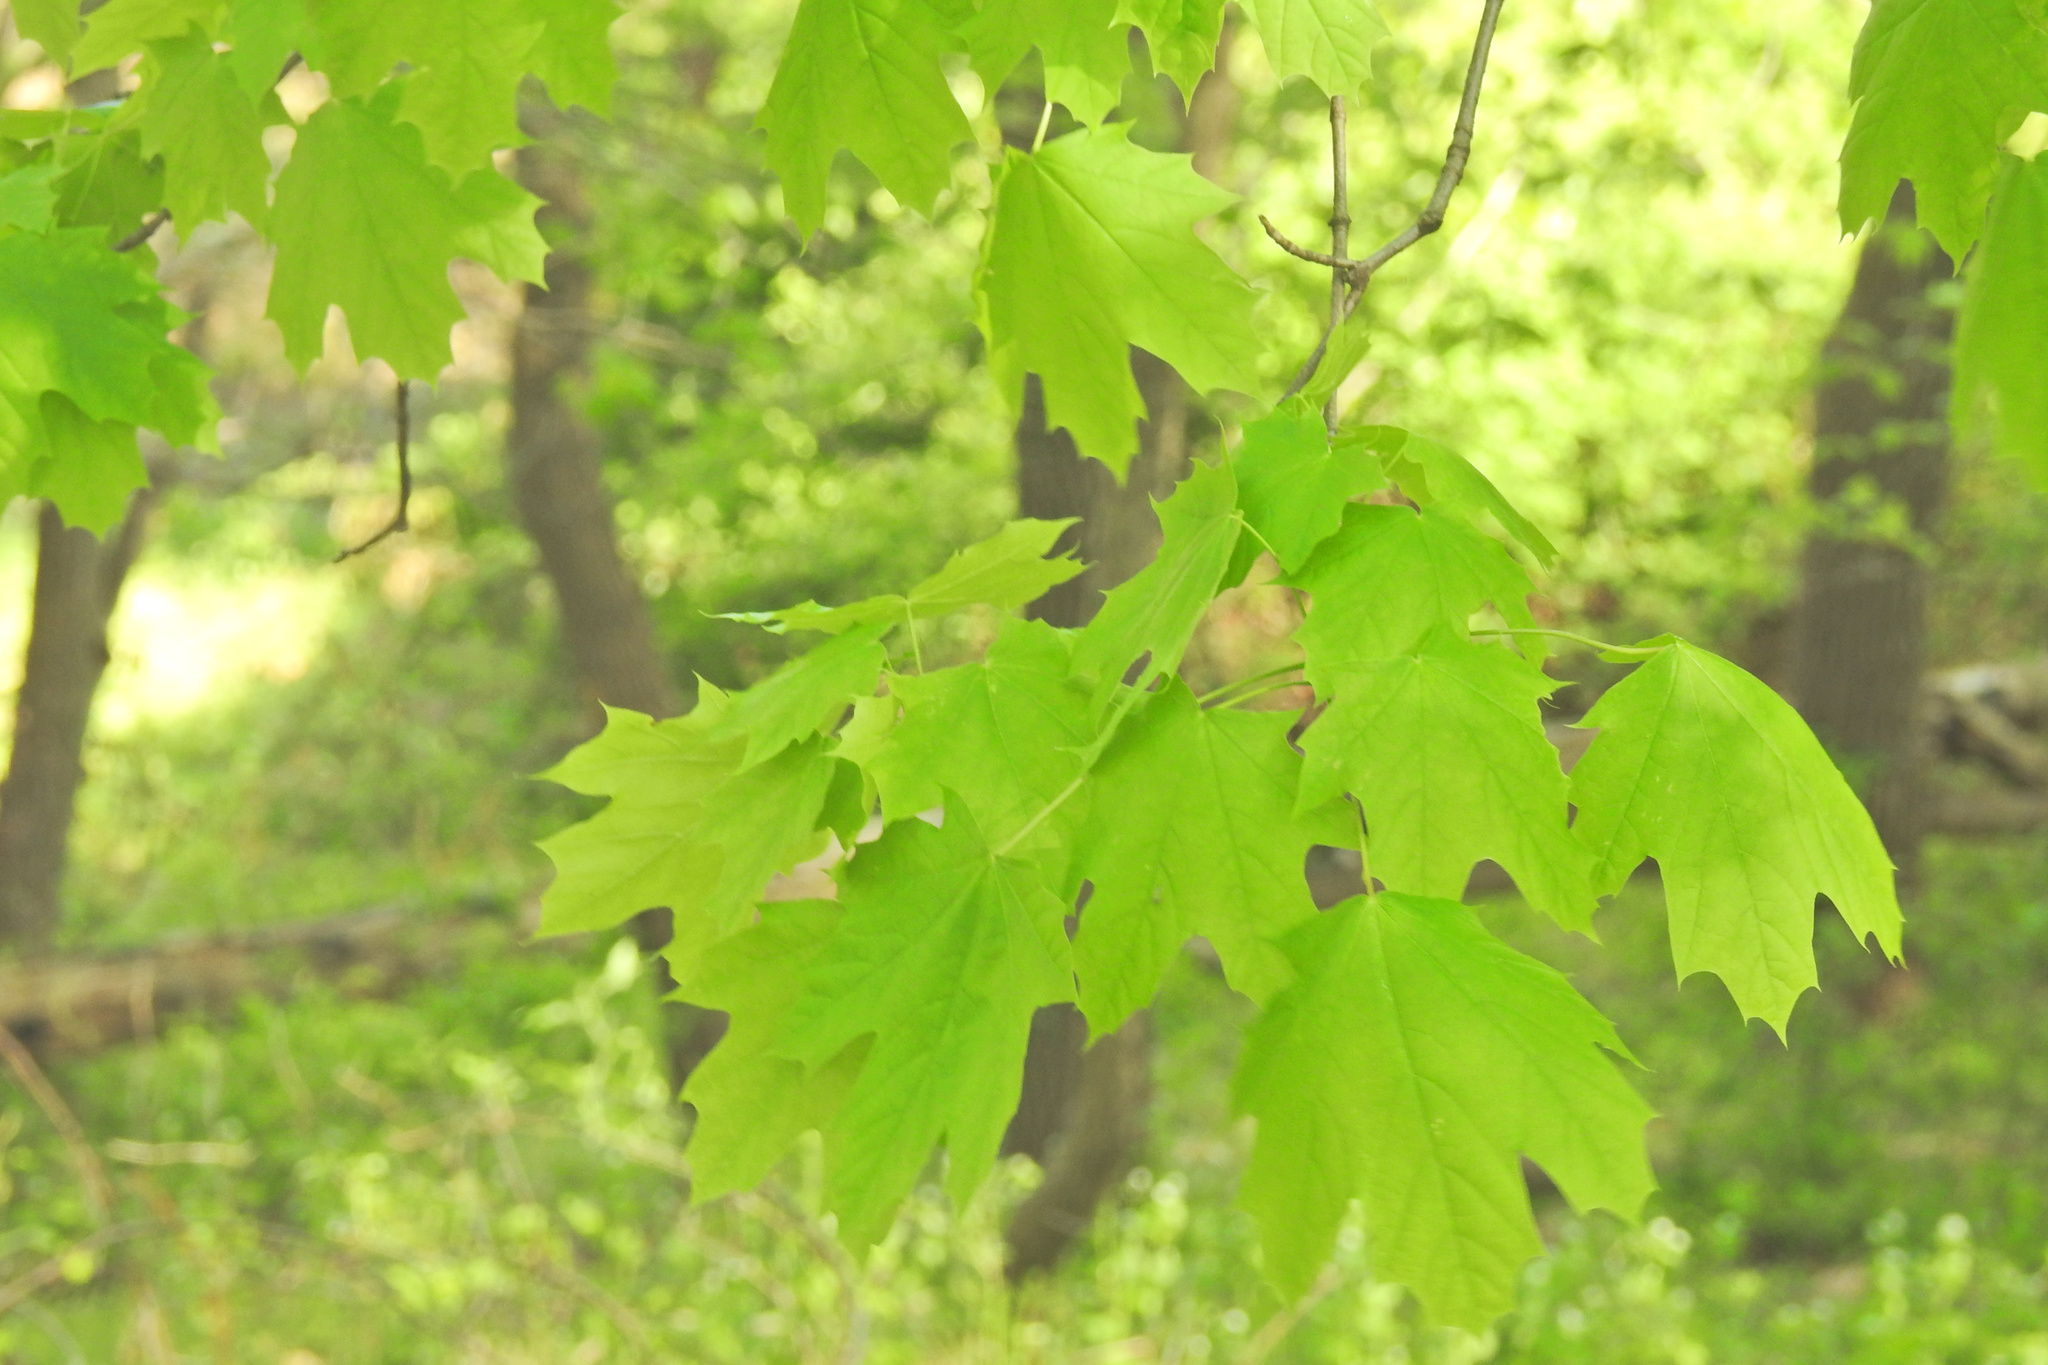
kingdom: Plantae
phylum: Tracheophyta
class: Magnoliopsida
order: Sapindales
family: Sapindaceae
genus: Acer
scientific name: Acer platanoides
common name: Norway maple
